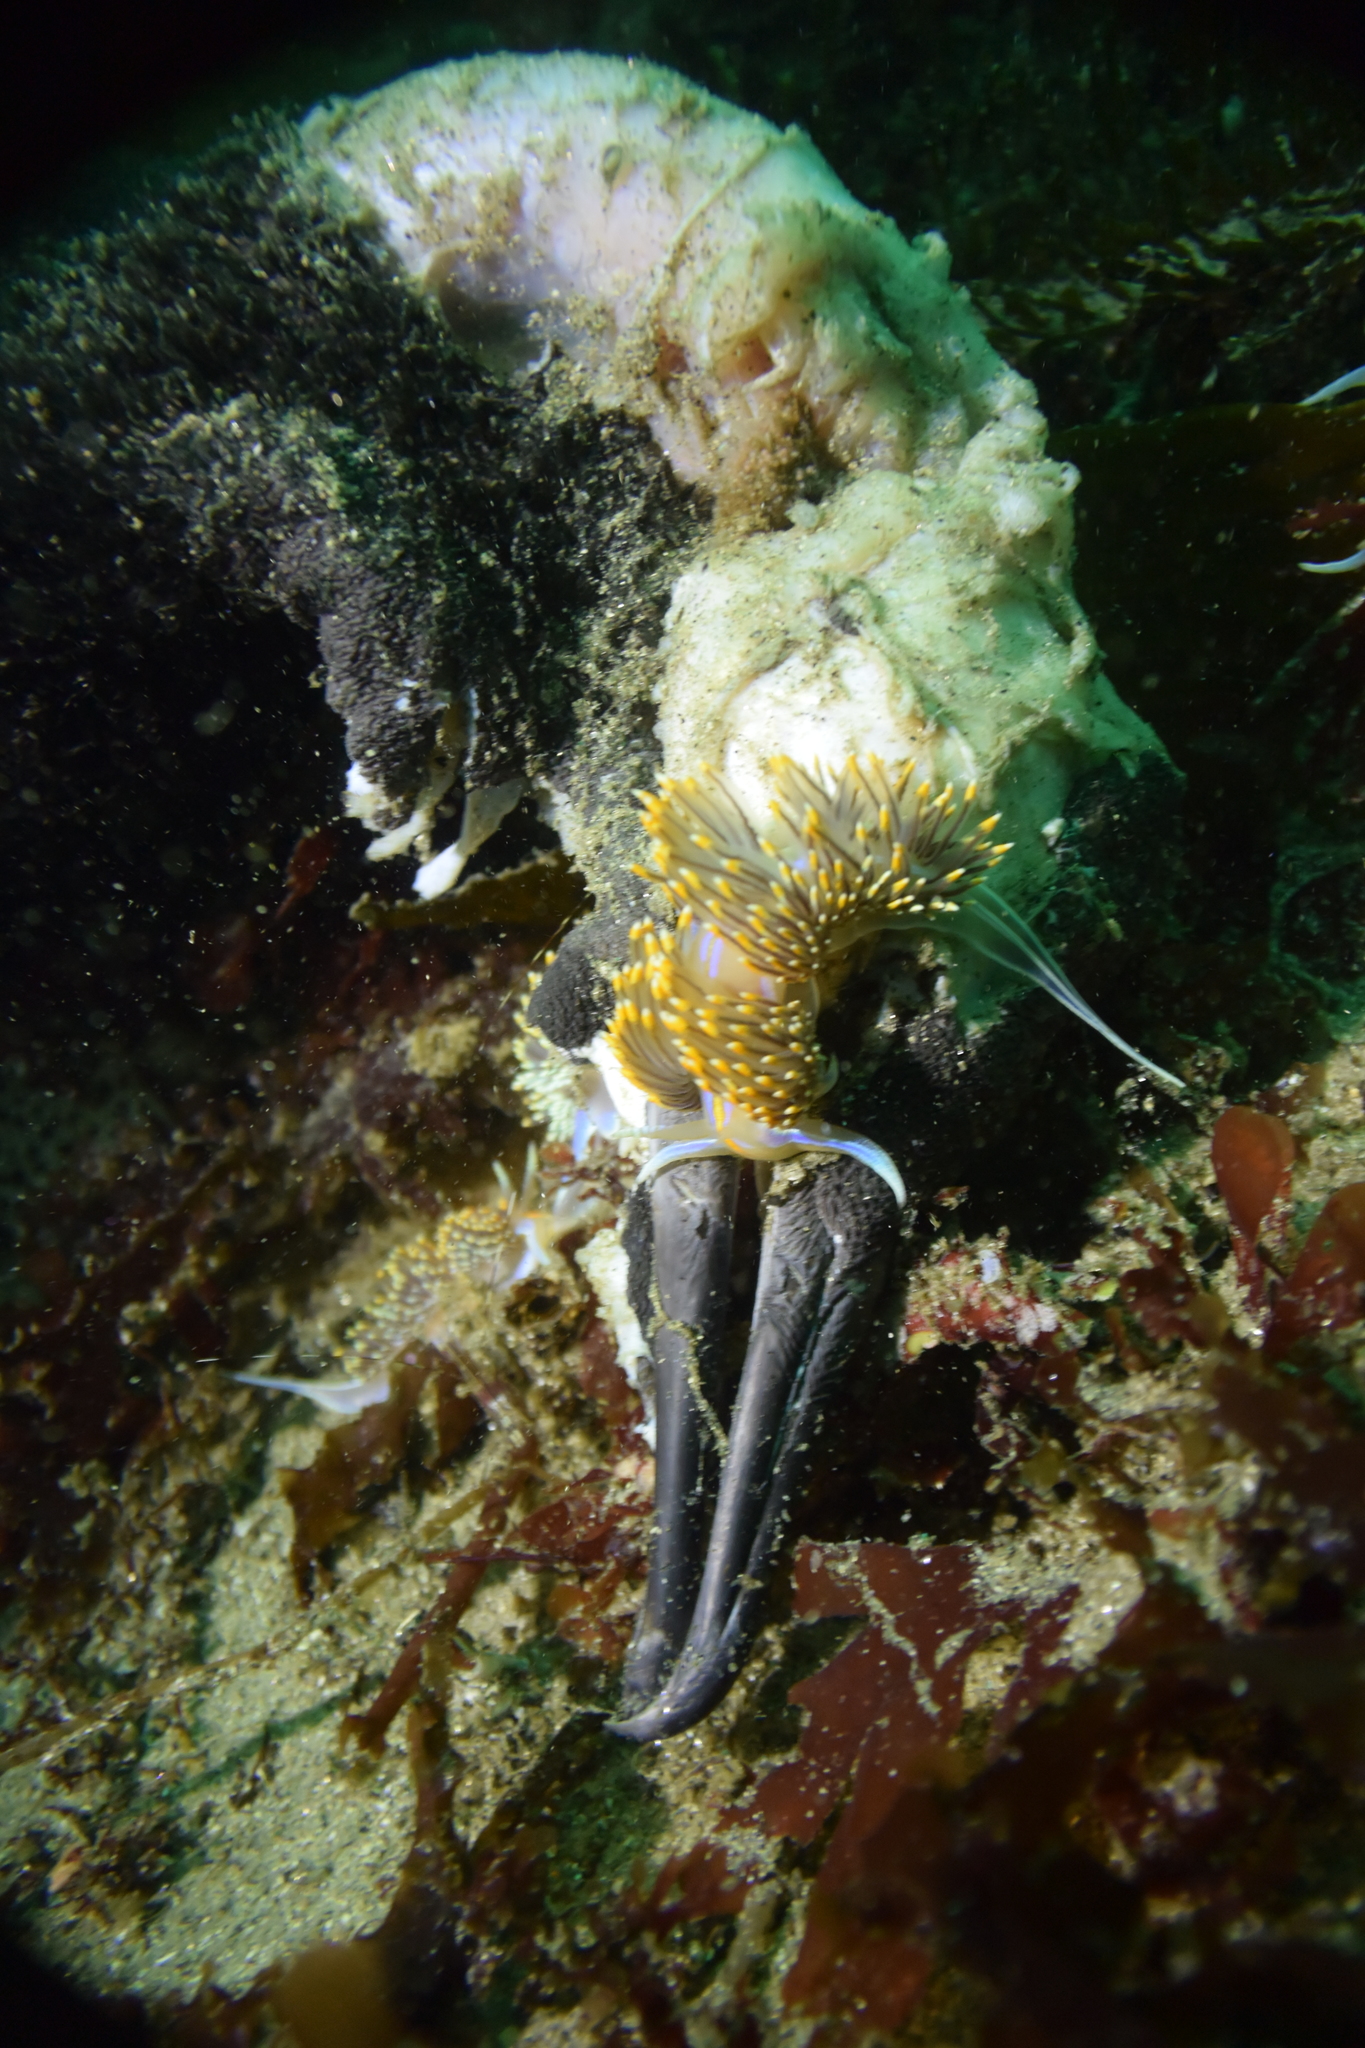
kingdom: Animalia
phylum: Mollusca
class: Gastropoda
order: Nudibranchia
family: Myrrhinidae
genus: Hermissenda
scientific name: Hermissenda opalescens
